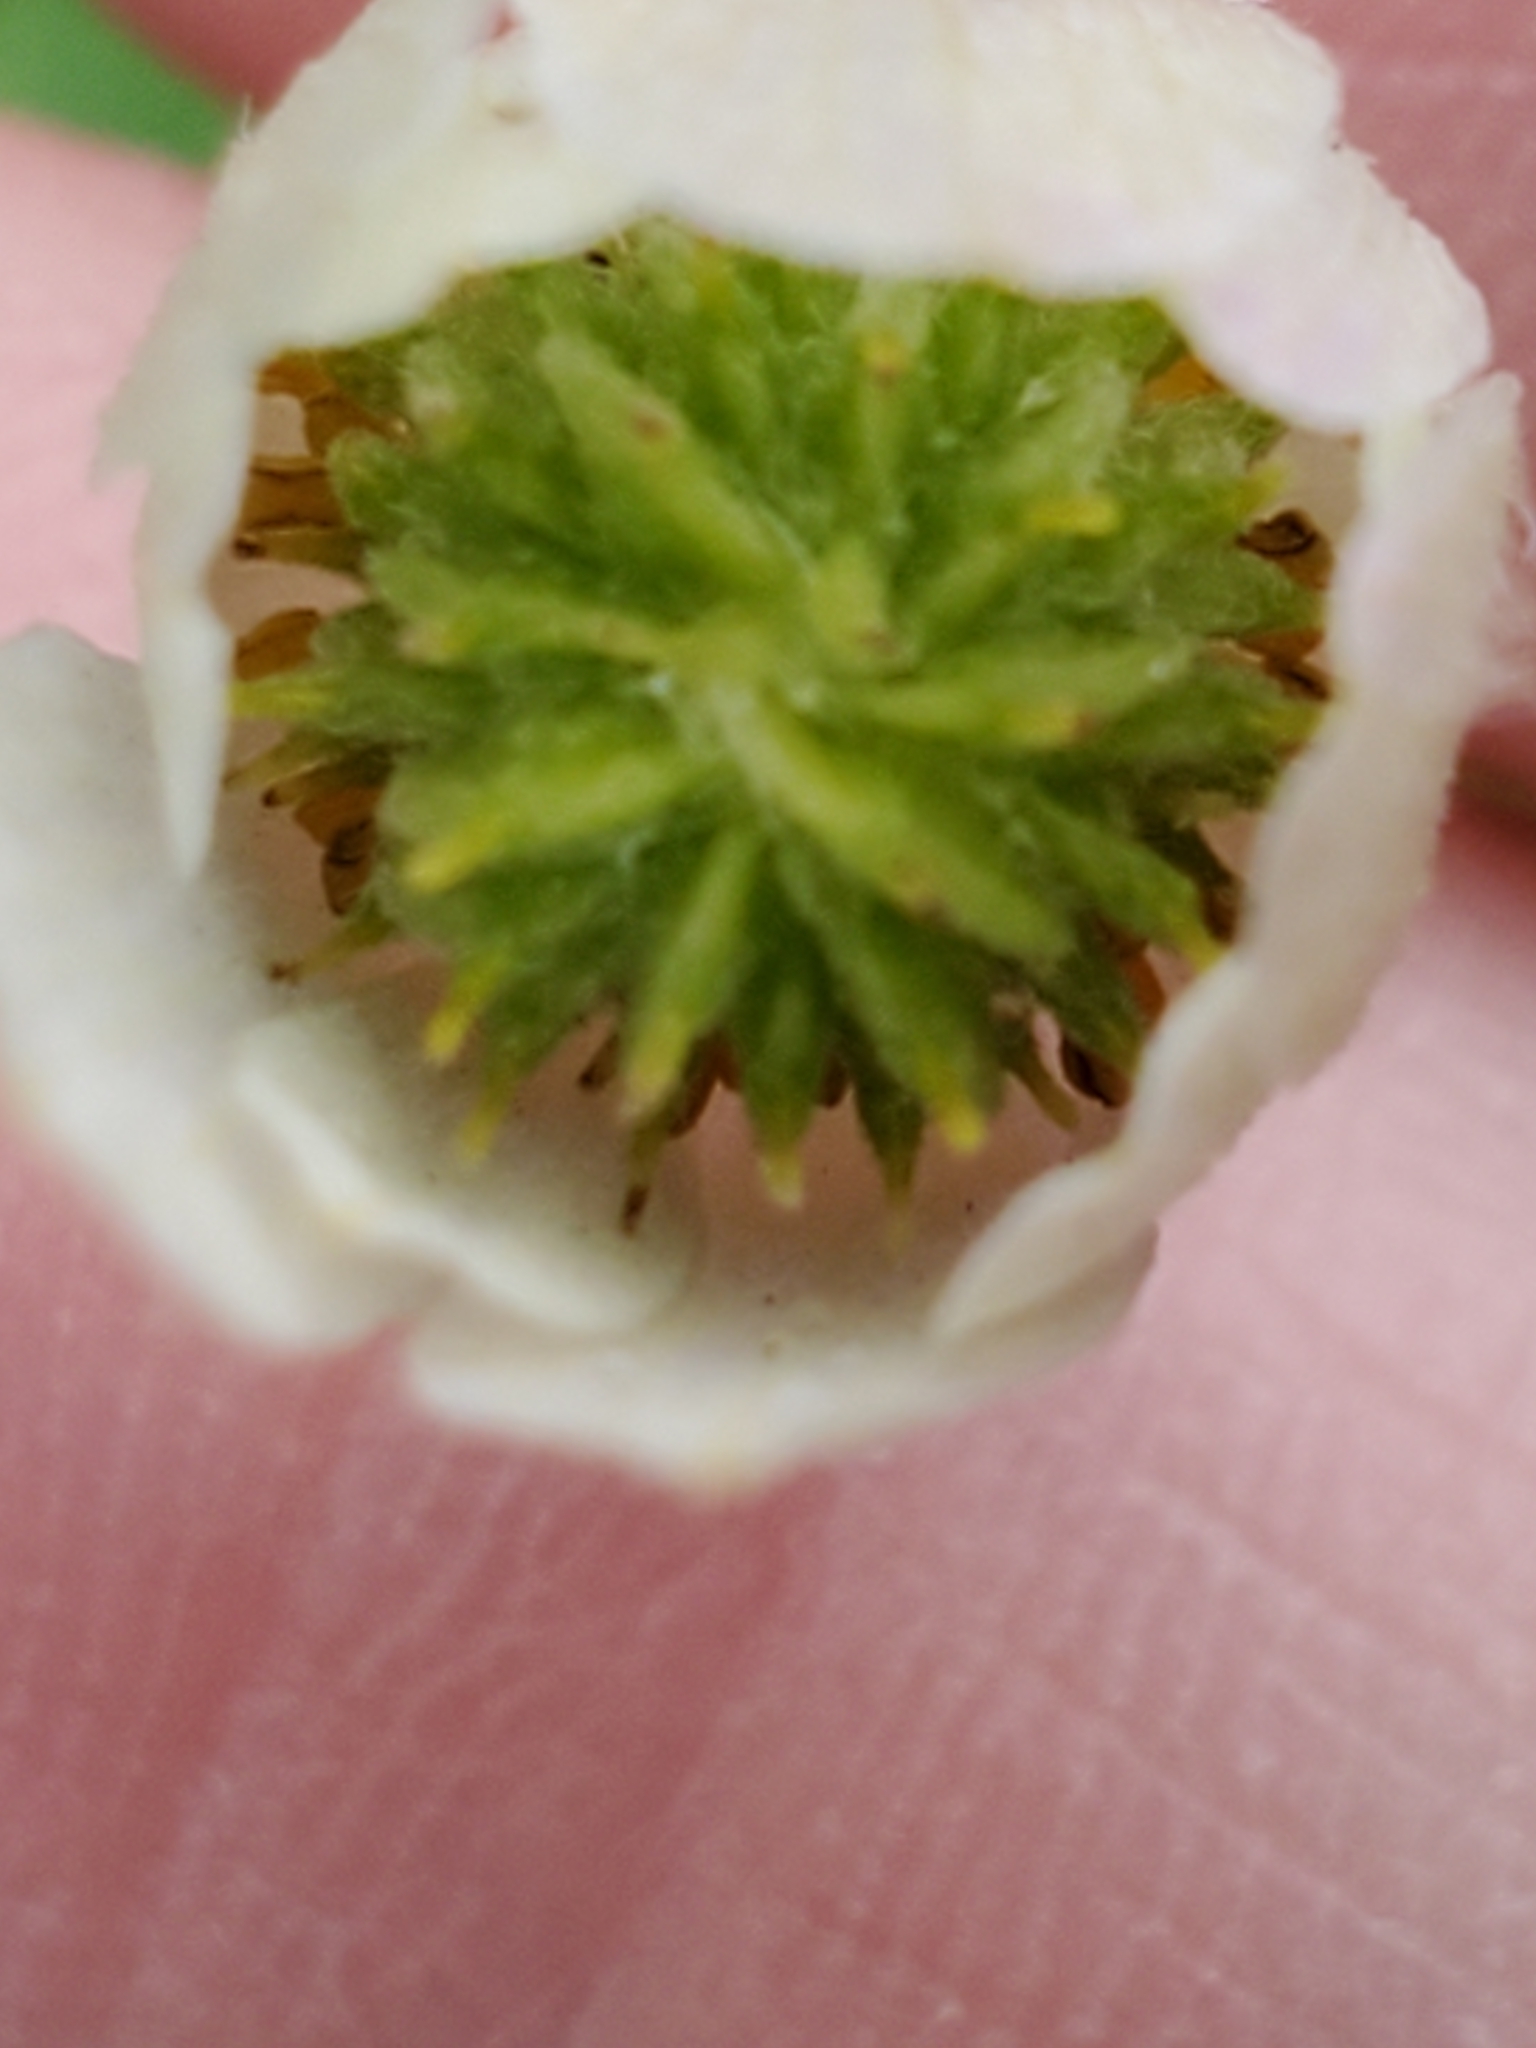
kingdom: Plantae
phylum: Tracheophyta
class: Magnoliopsida
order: Ranunculales
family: Ranunculaceae
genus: Anemone
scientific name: Anemone edwardsiana
